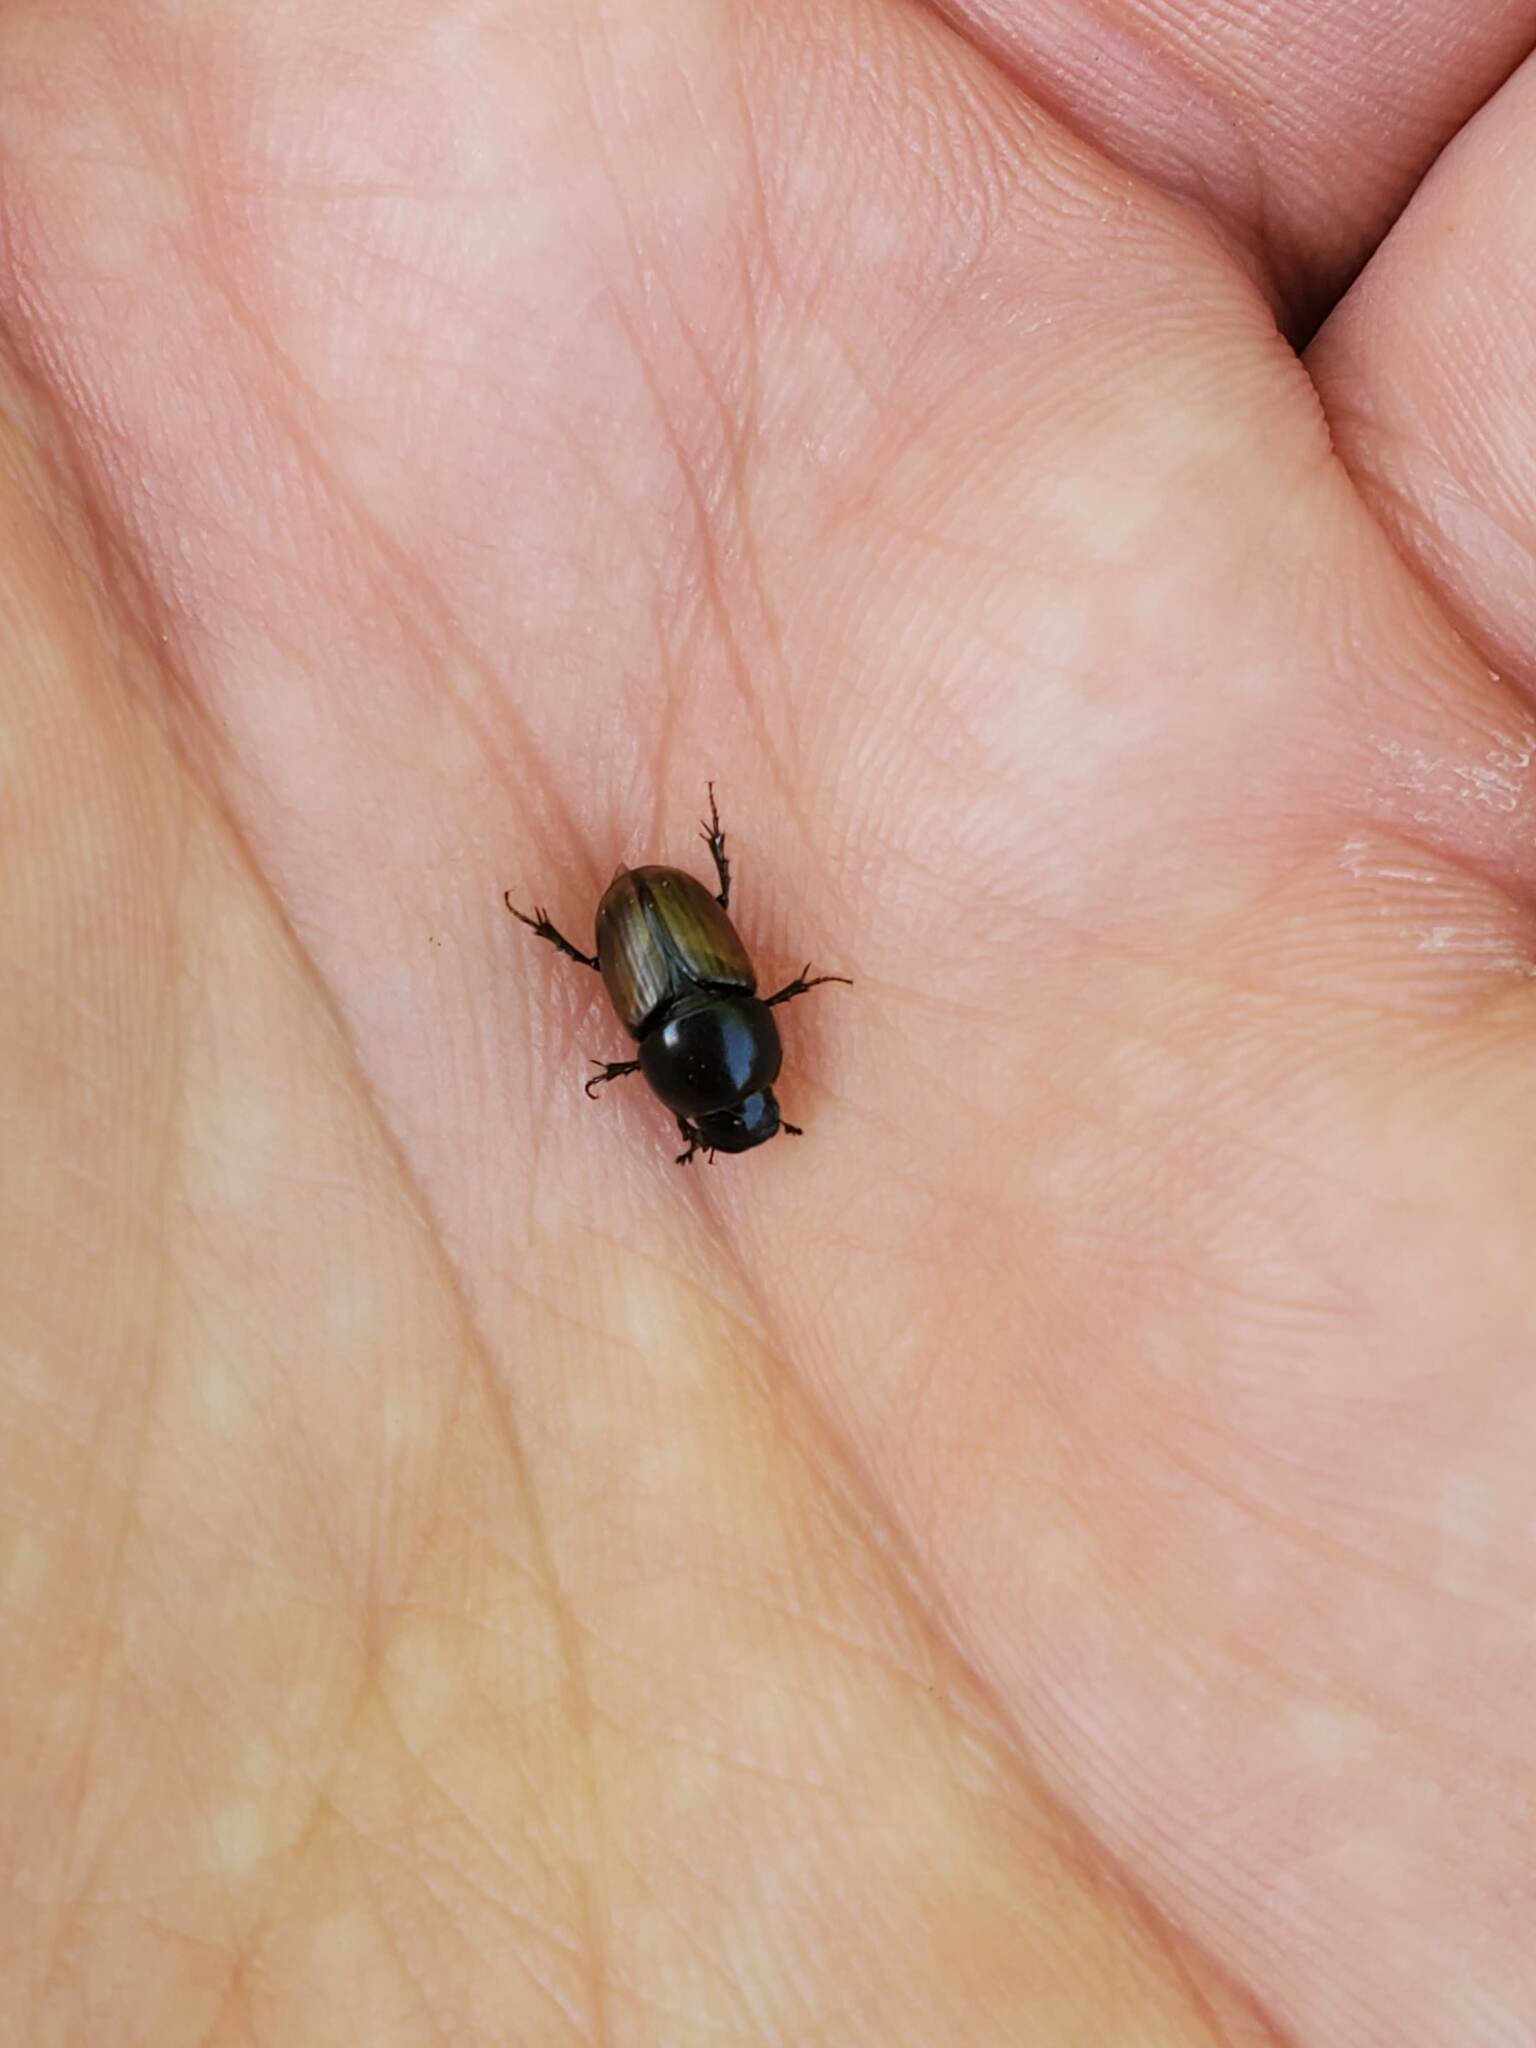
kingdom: Animalia
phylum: Arthropoda
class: Insecta
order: Coleoptera
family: Scarabaeidae
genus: Colobopterus
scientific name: Colobopterus erraticus
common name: Erratic small dung beetle
